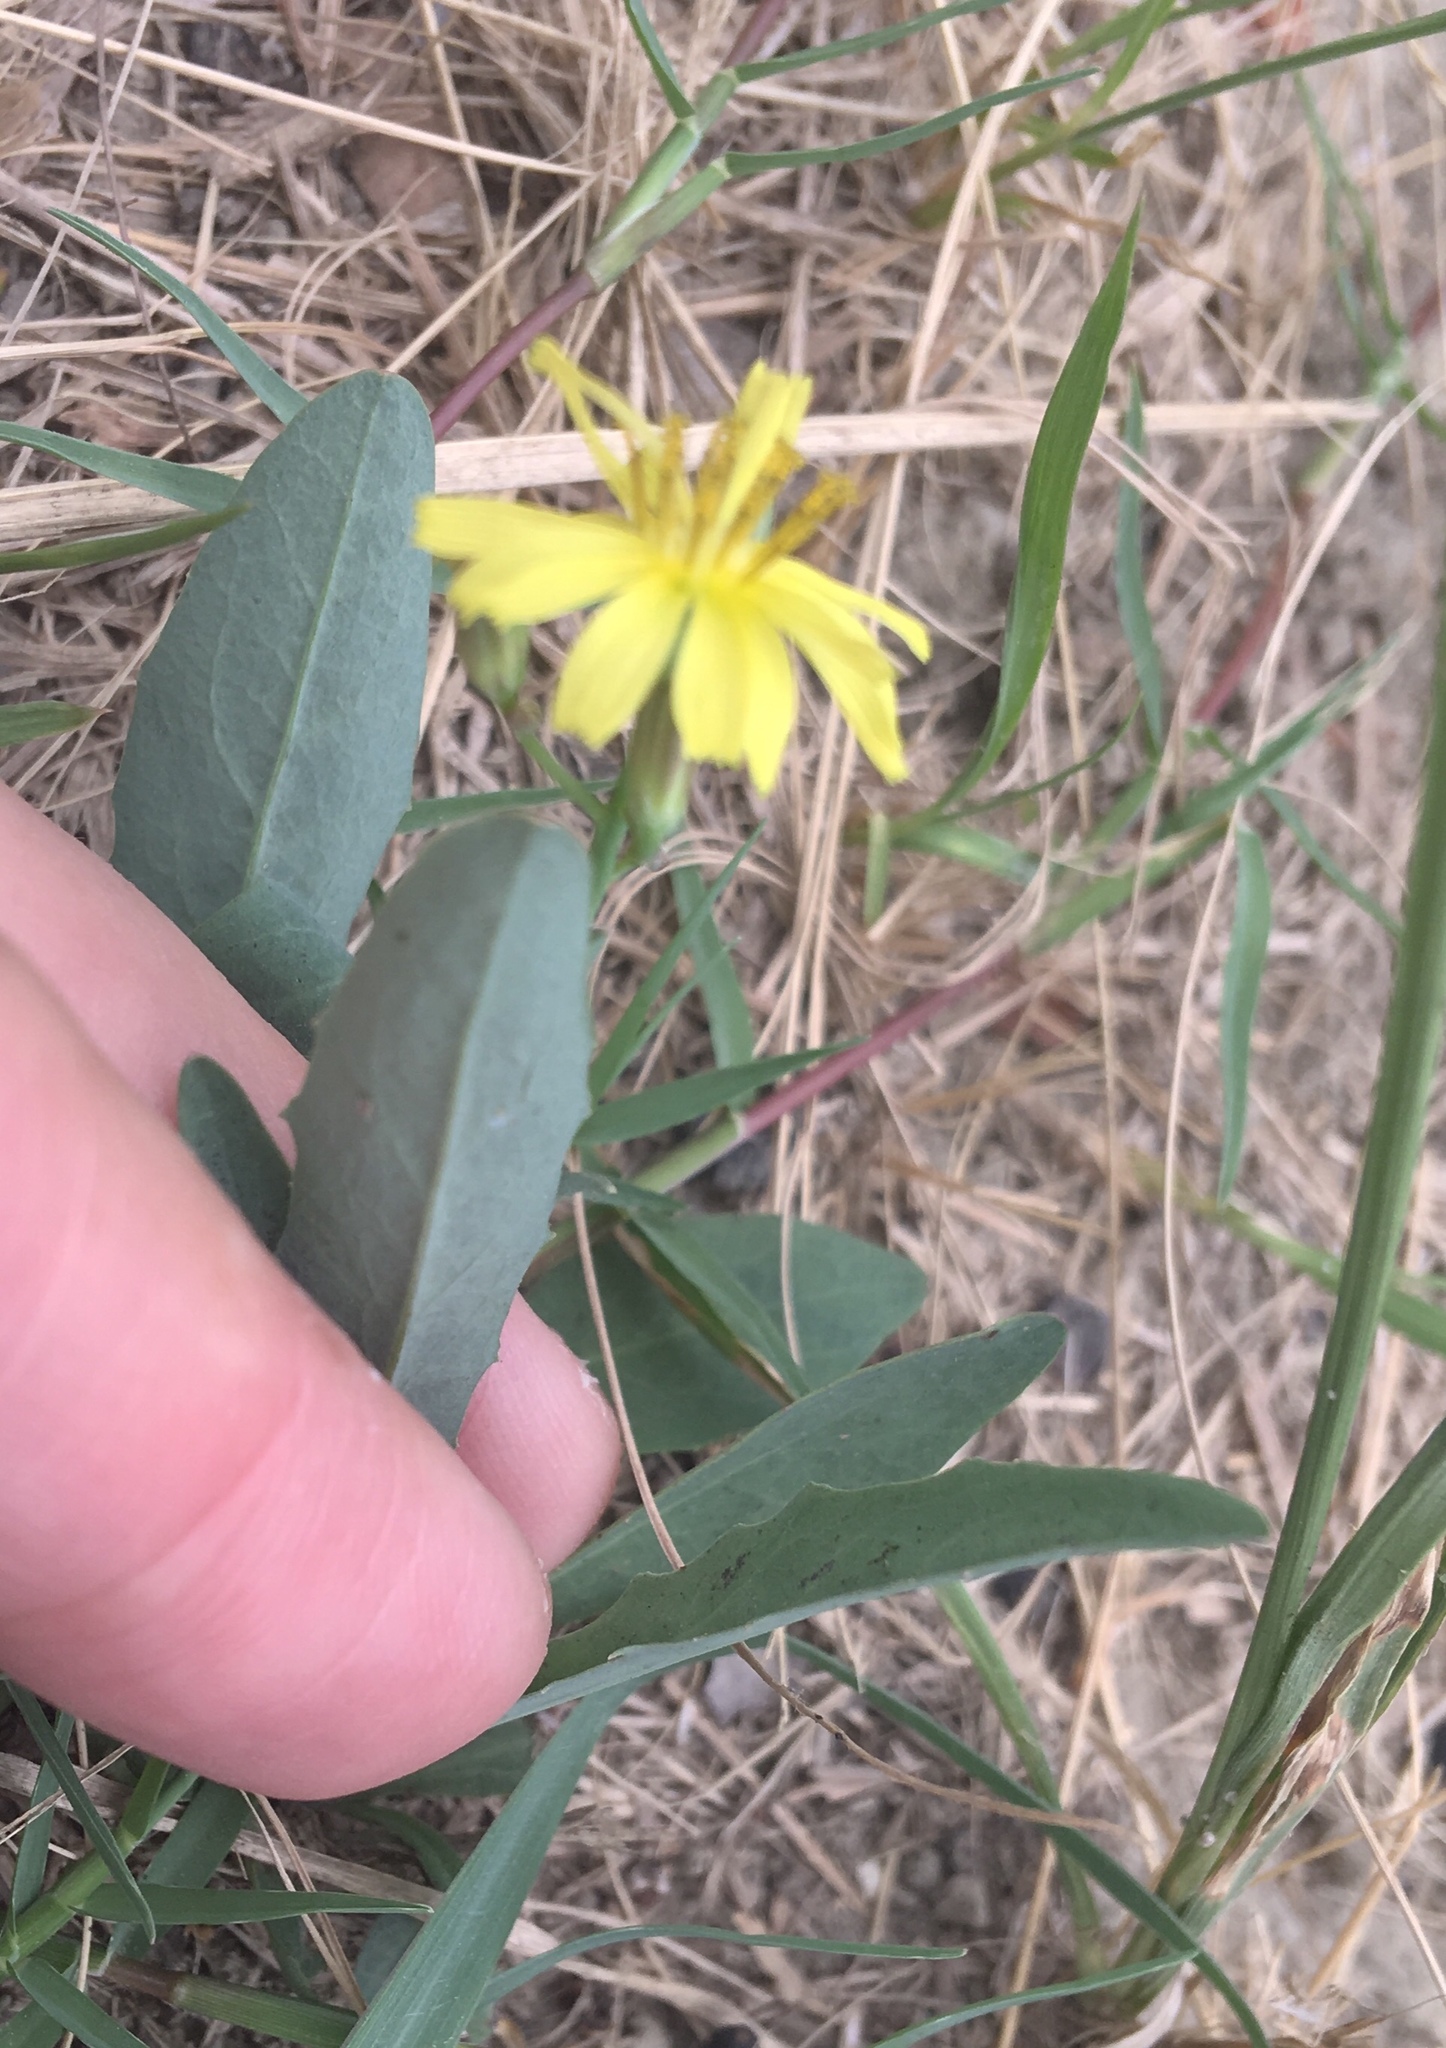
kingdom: Plantae
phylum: Tracheophyta
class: Magnoliopsida
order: Asterales
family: Asteraceae
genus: Ixeris
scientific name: Ixeris chinensis
